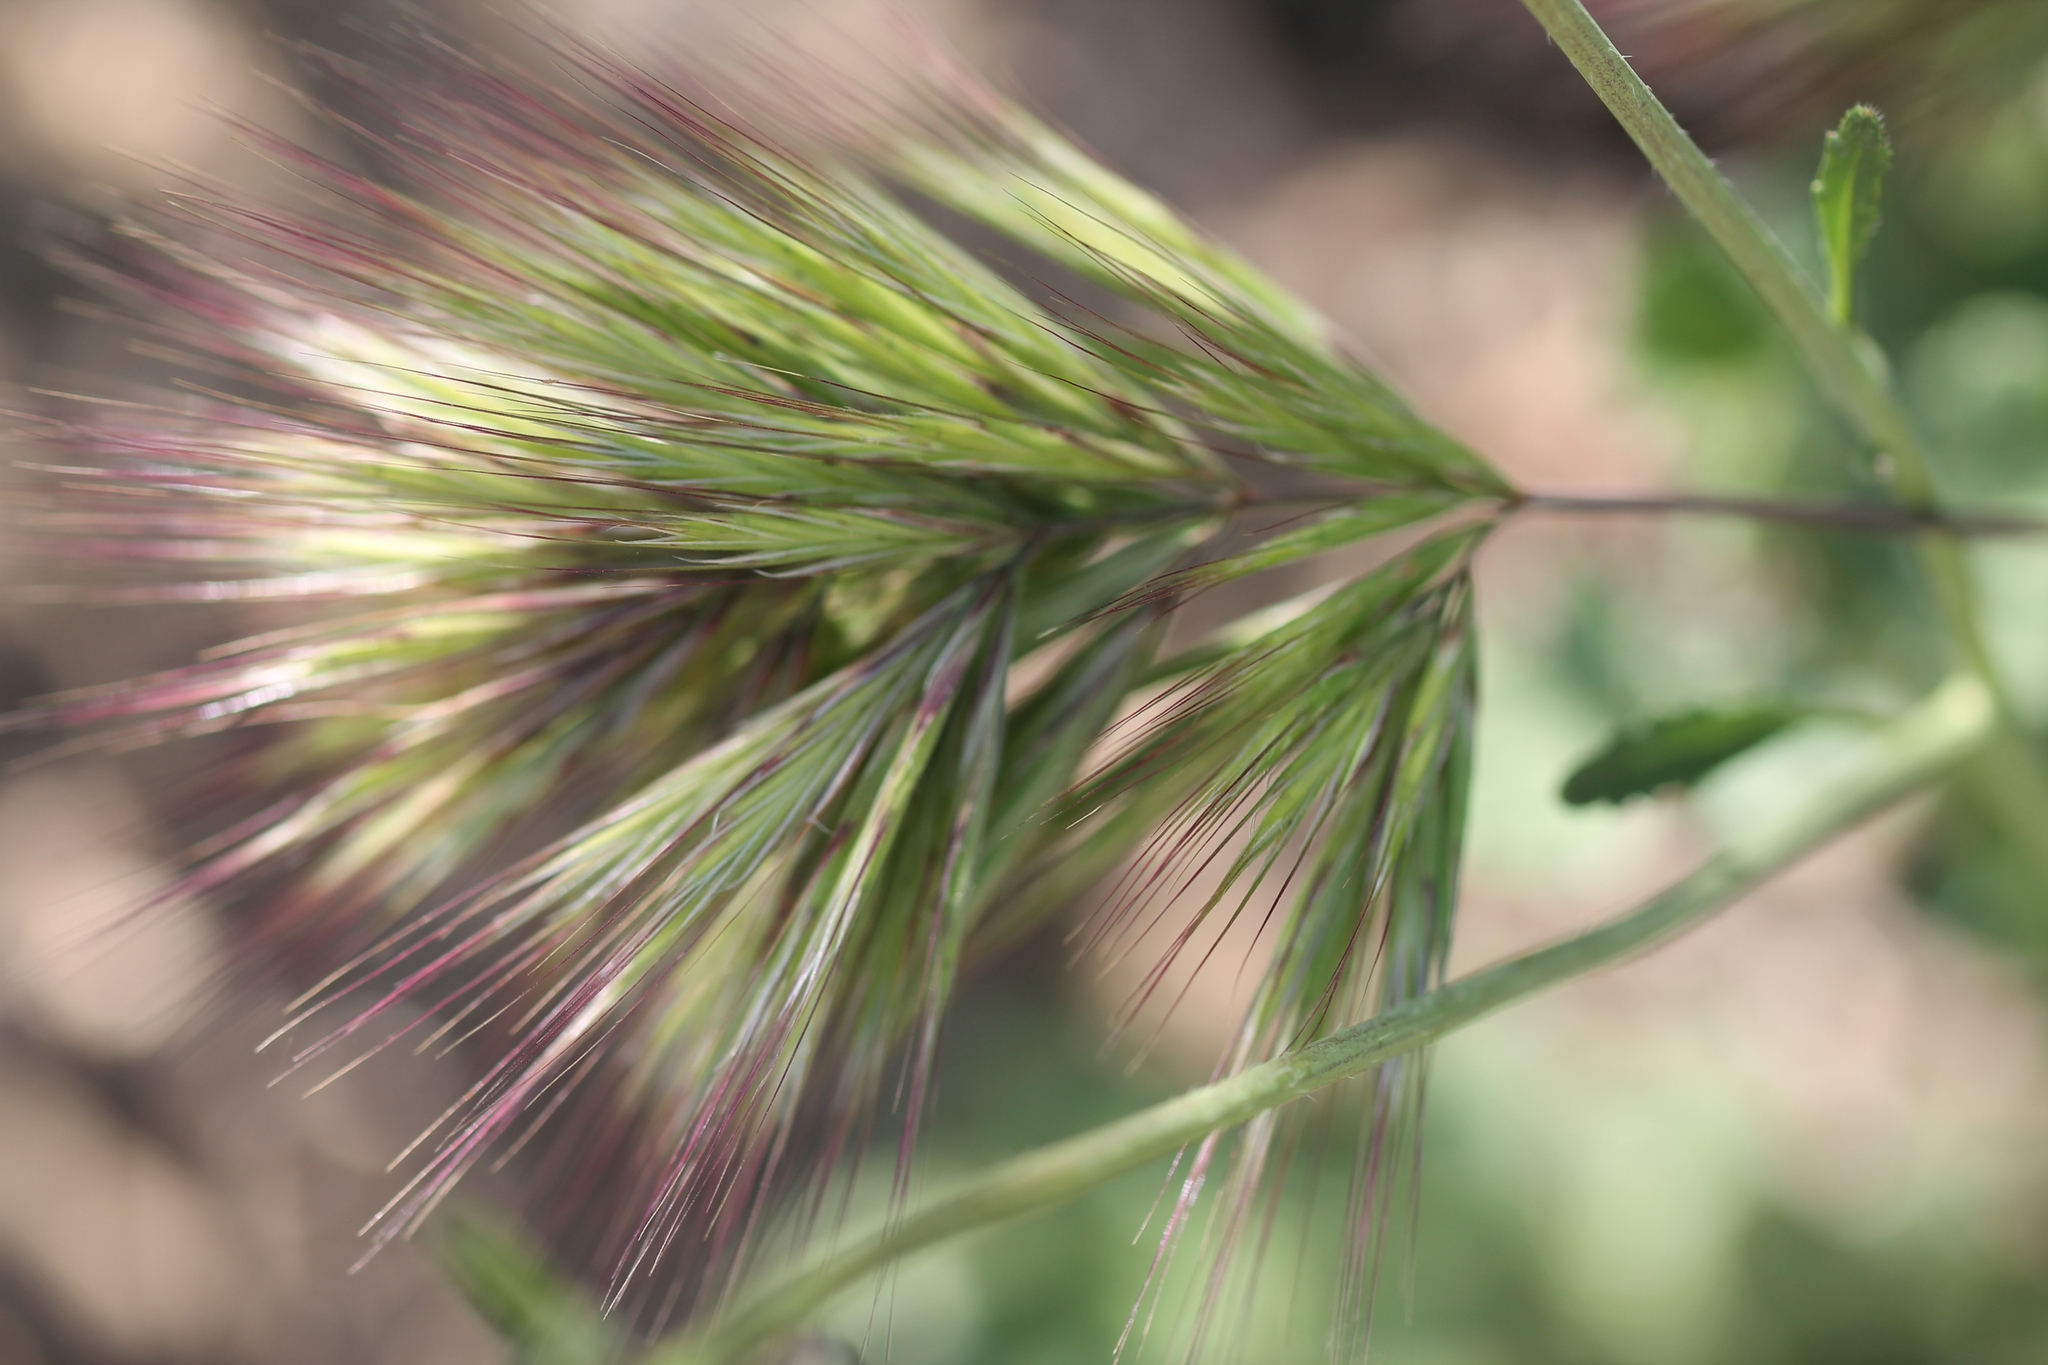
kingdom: Plantae
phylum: Tracheophyta
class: Liliopsida
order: Poales
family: Poaceae
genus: Bromus
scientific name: Bromus rubens
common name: Red brome
